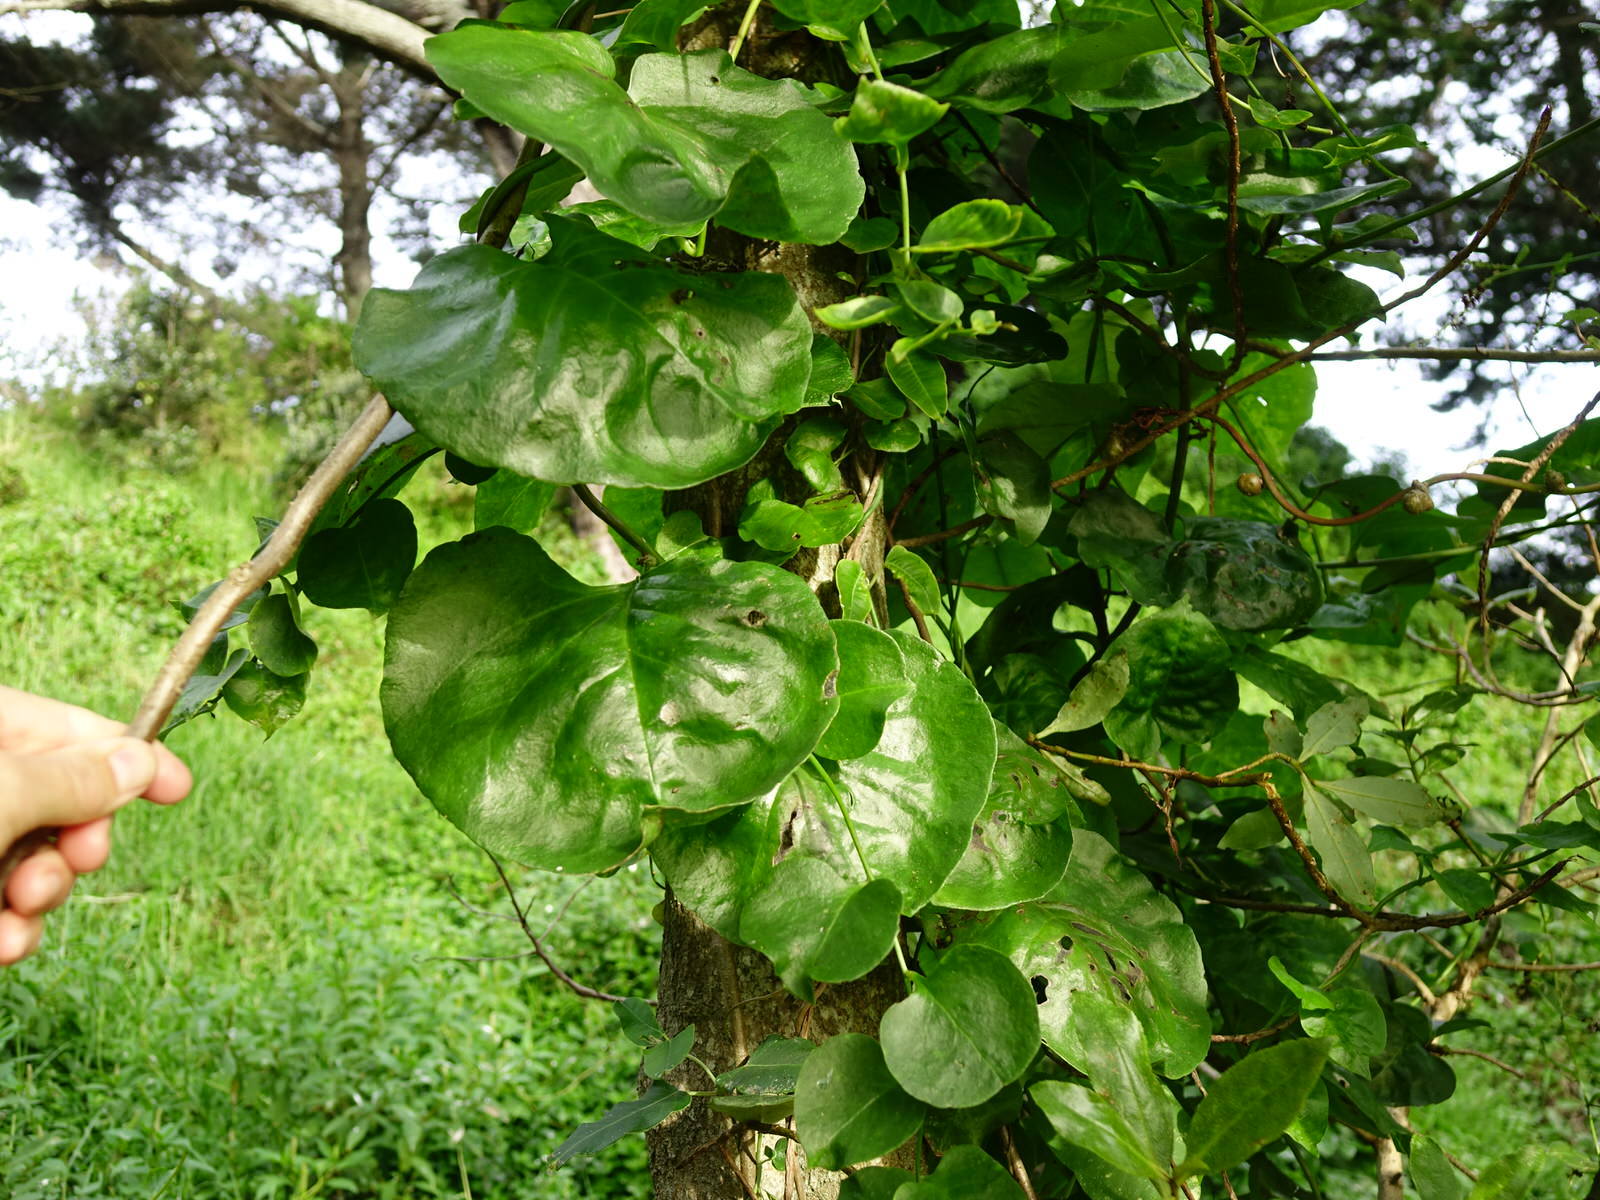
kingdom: Plantae
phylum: Tracheophyta
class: Magnoliopsida
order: Caryophyllales
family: Basellaceae
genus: Anredera
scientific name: Anredera cordifolia
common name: Heartleaf madeiravine
